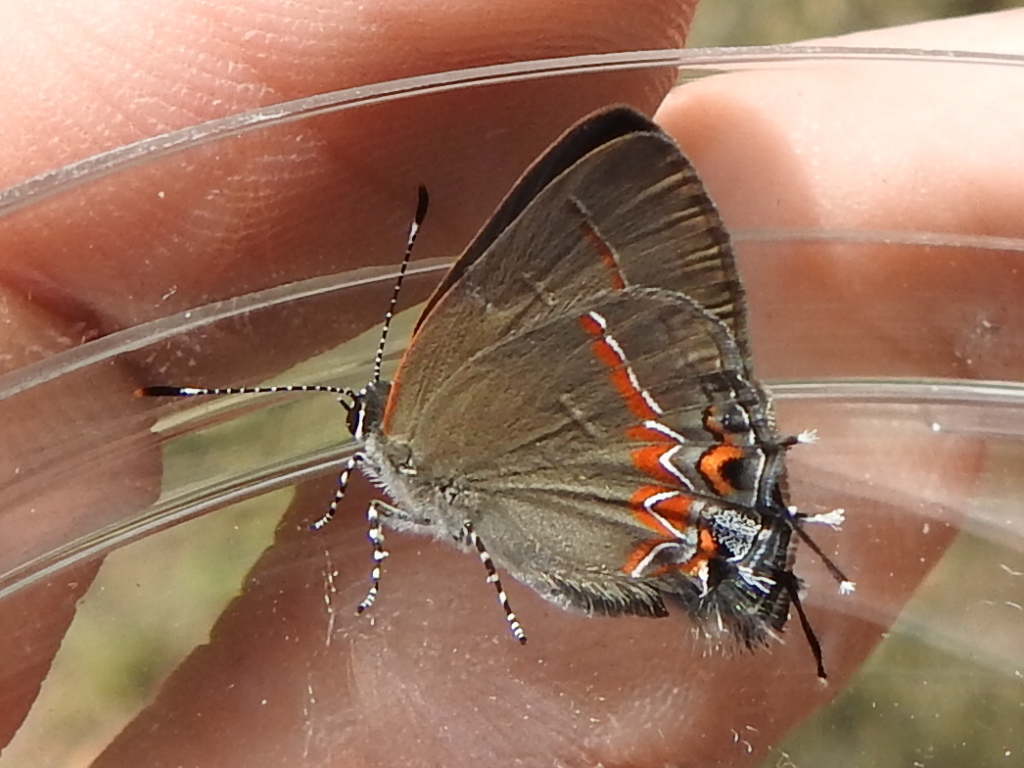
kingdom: Animalia
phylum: Arthropoda
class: Insecta
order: Lepidoptera
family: Lycaenidae
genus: Calycopis
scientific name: Calycopis isobeon
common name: Dusky-blue groundstreak
